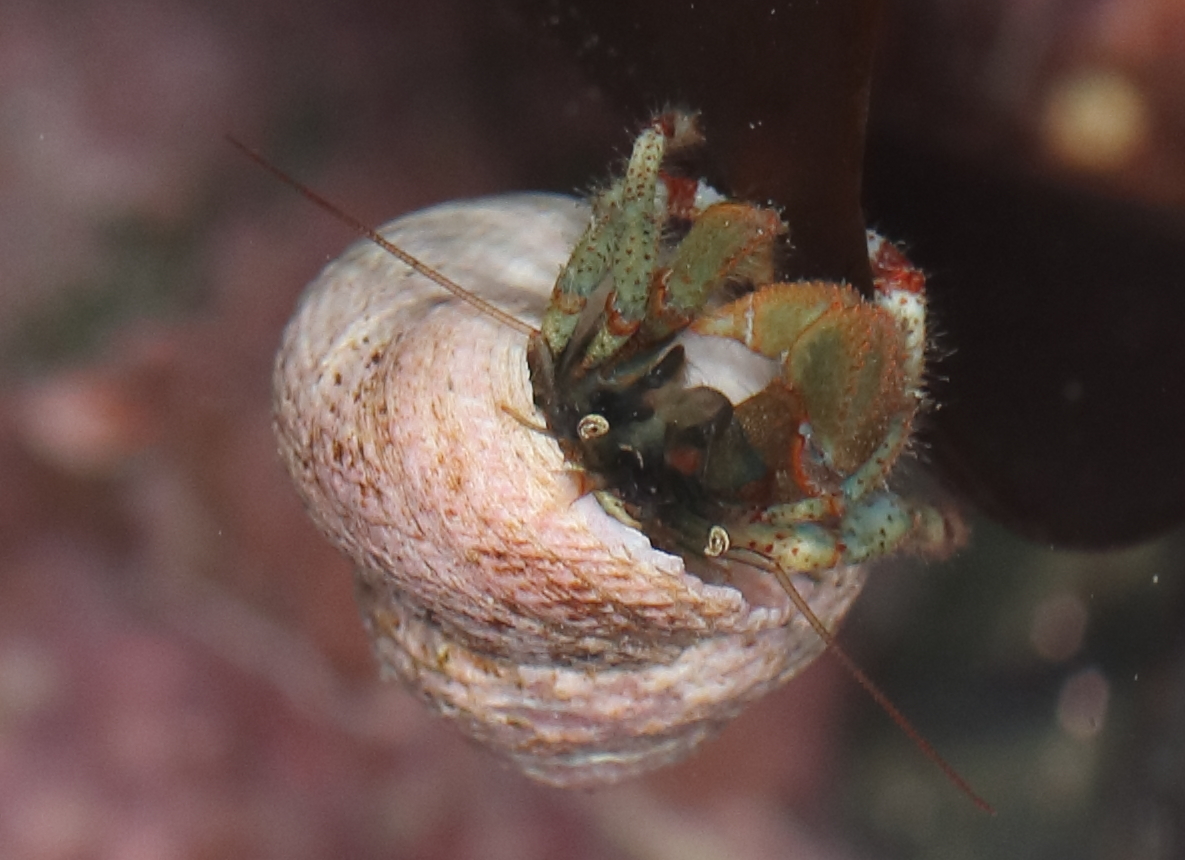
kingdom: Animalia
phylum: Arthropoda
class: Malacostraca
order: Decapoda
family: Paguridae
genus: Pagurus
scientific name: Pagurus beringanus
